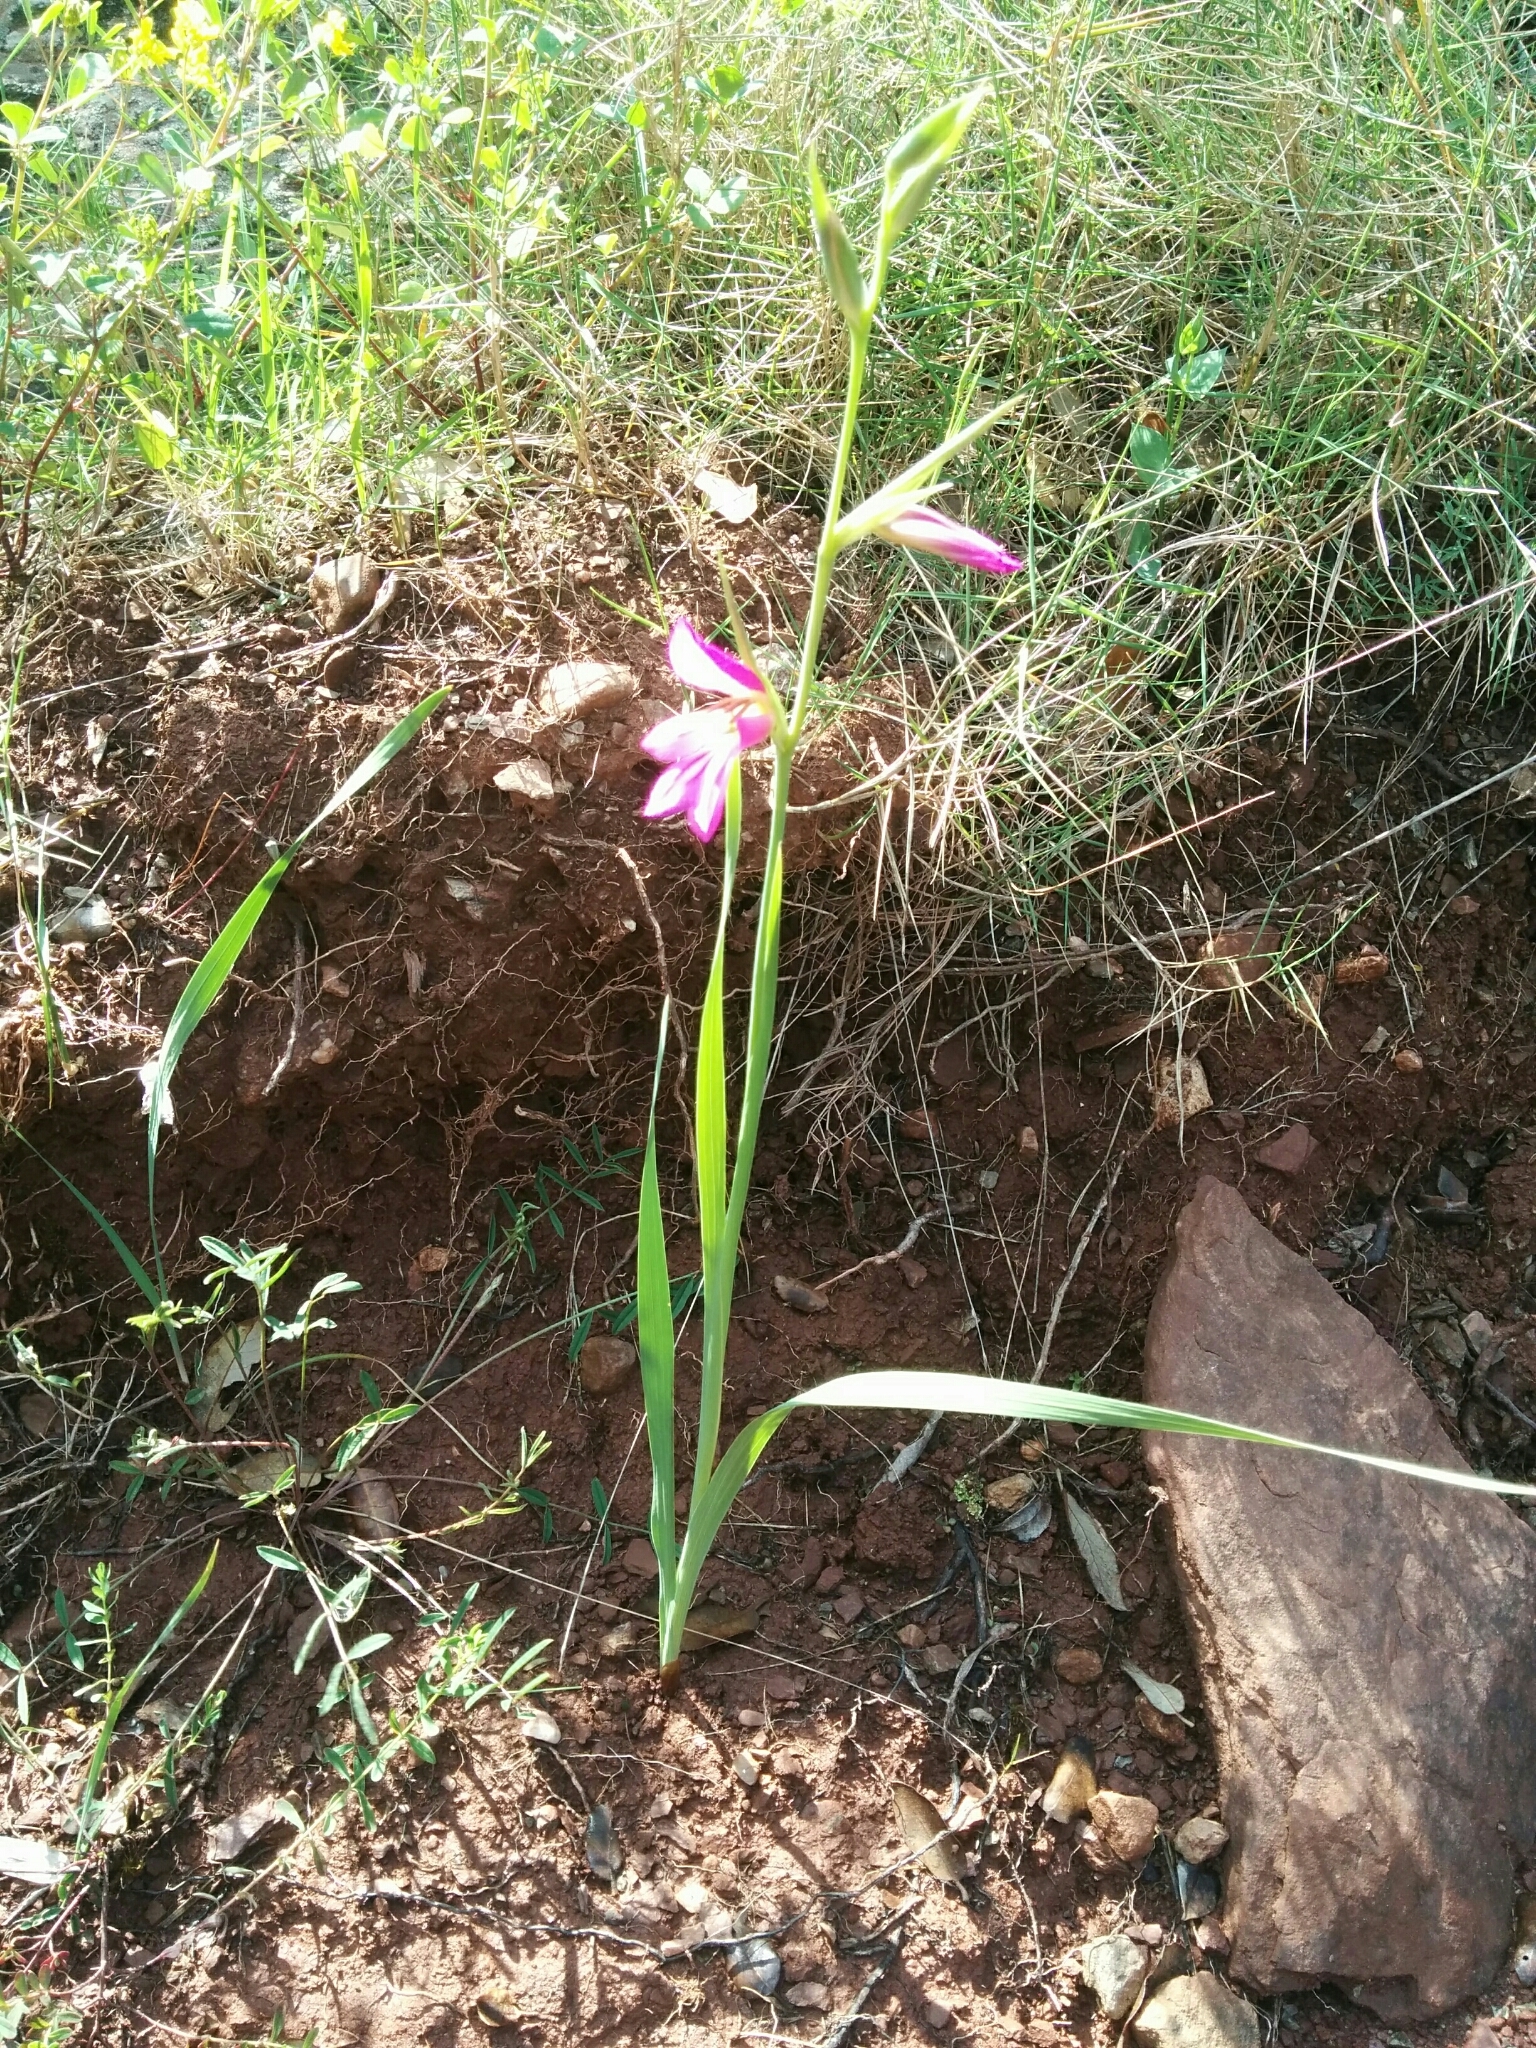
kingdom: Plantae
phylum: Tracheophyta
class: Liliopsida
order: Asparagales
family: Iridaceae
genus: Gladiolus
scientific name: Gladiolus italicus
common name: Field gladiolus
